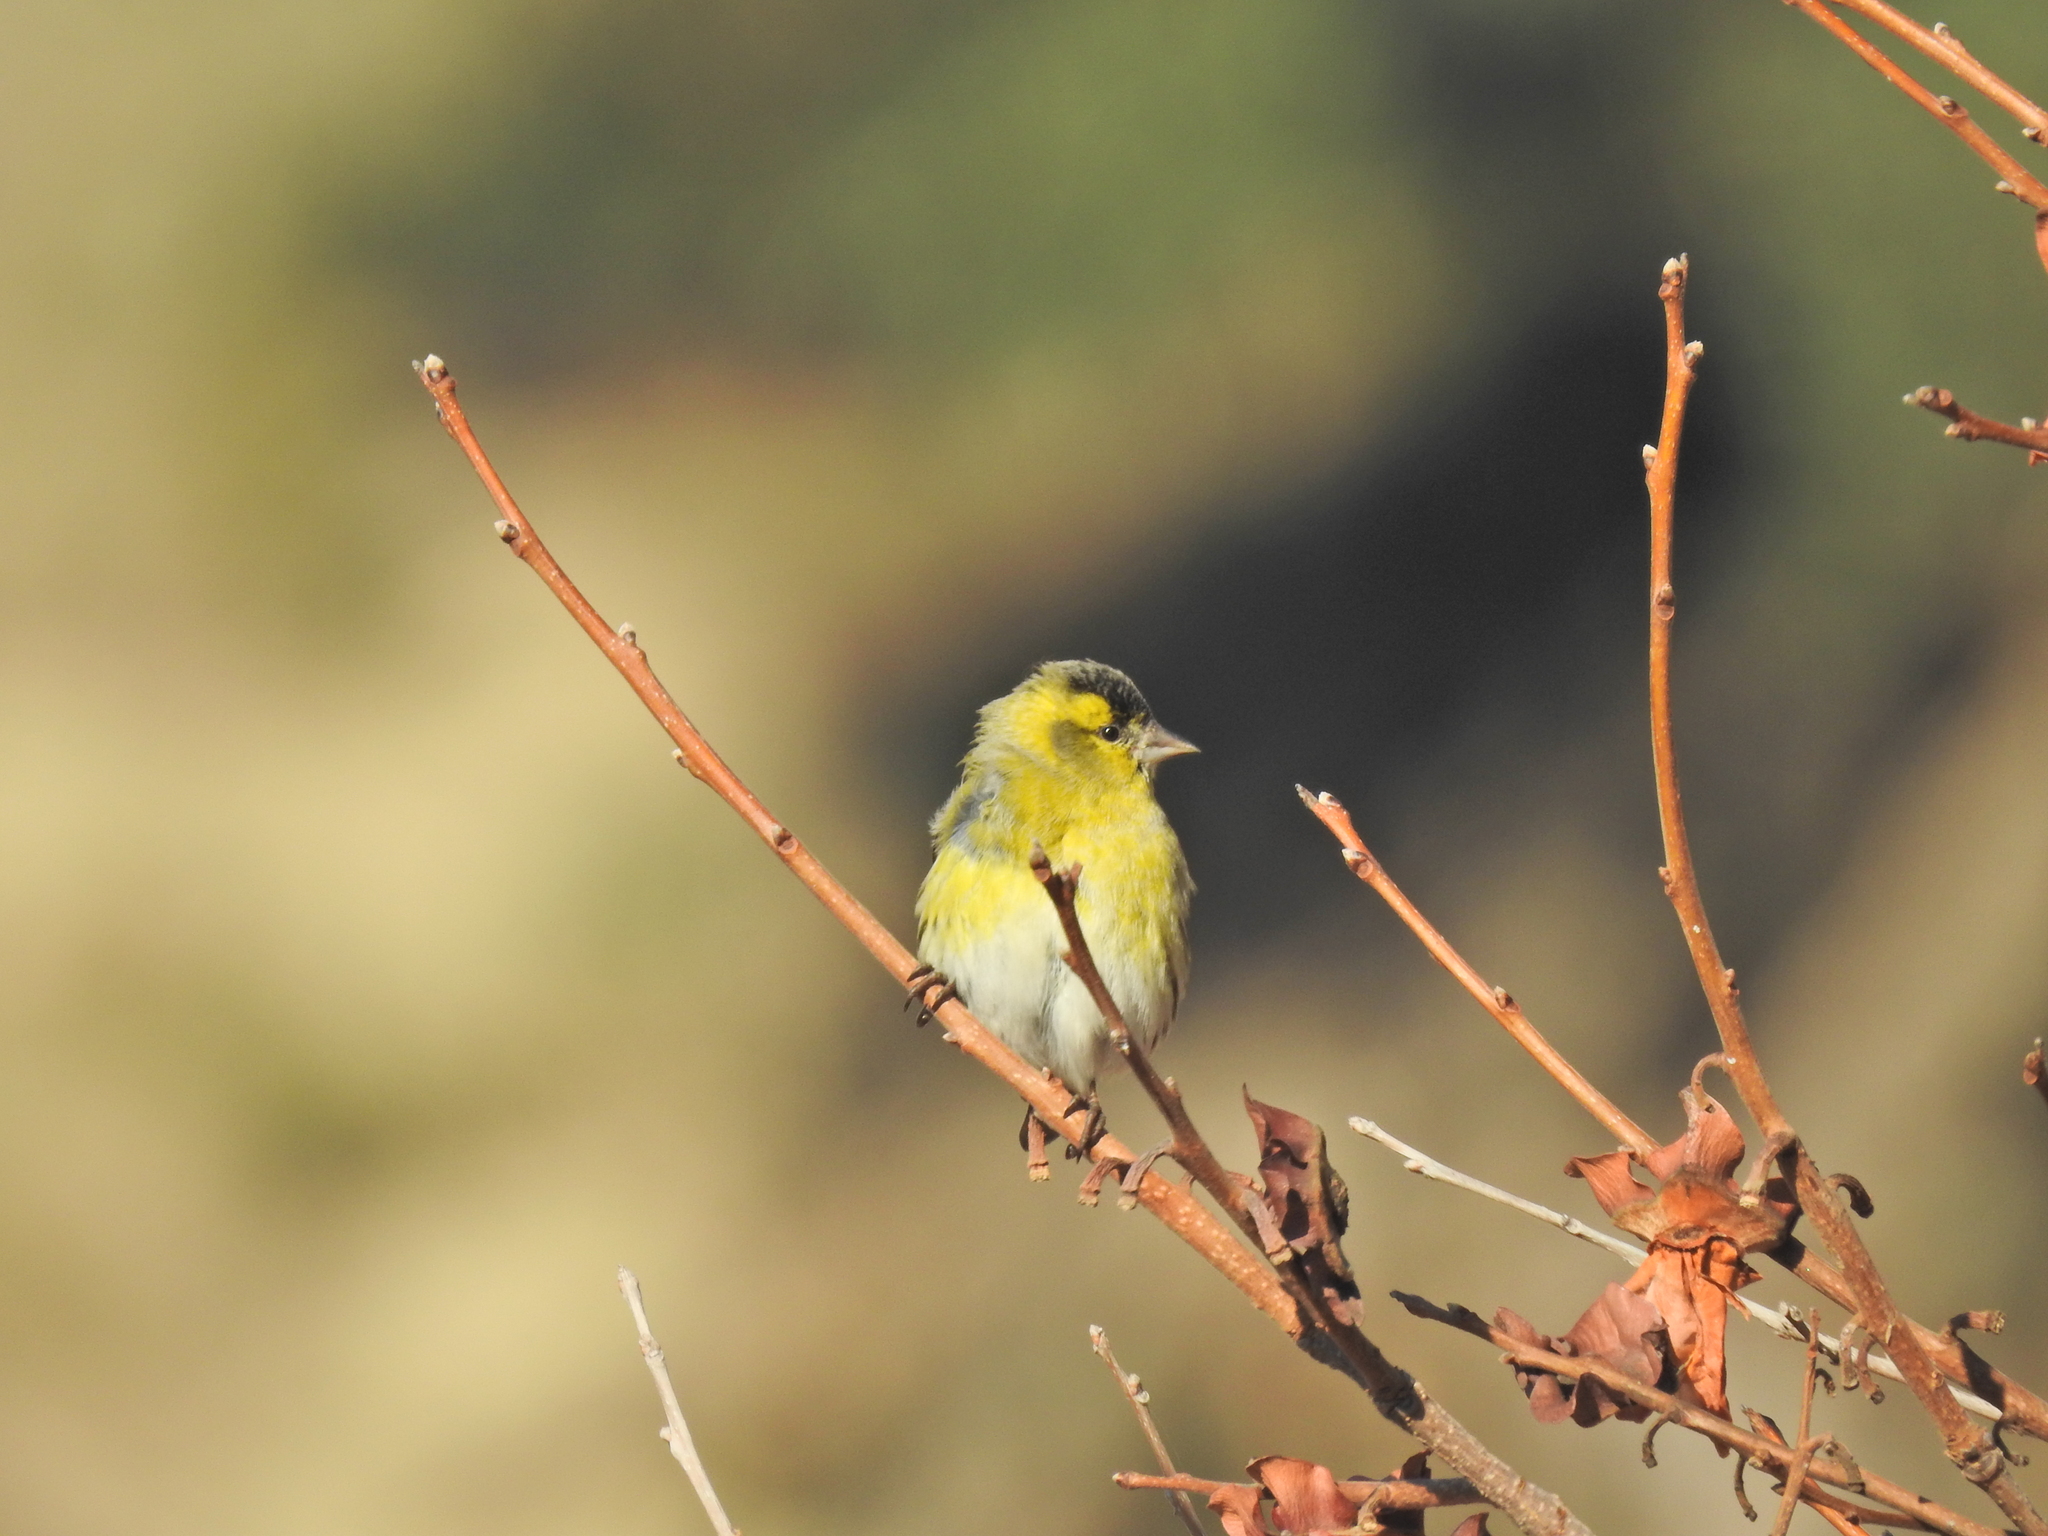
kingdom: Animalia
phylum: Chordata
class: Aves
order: Passeriformes
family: Fringillidae
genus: Spinus
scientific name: Spinus spinus
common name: Eurasian siskin
